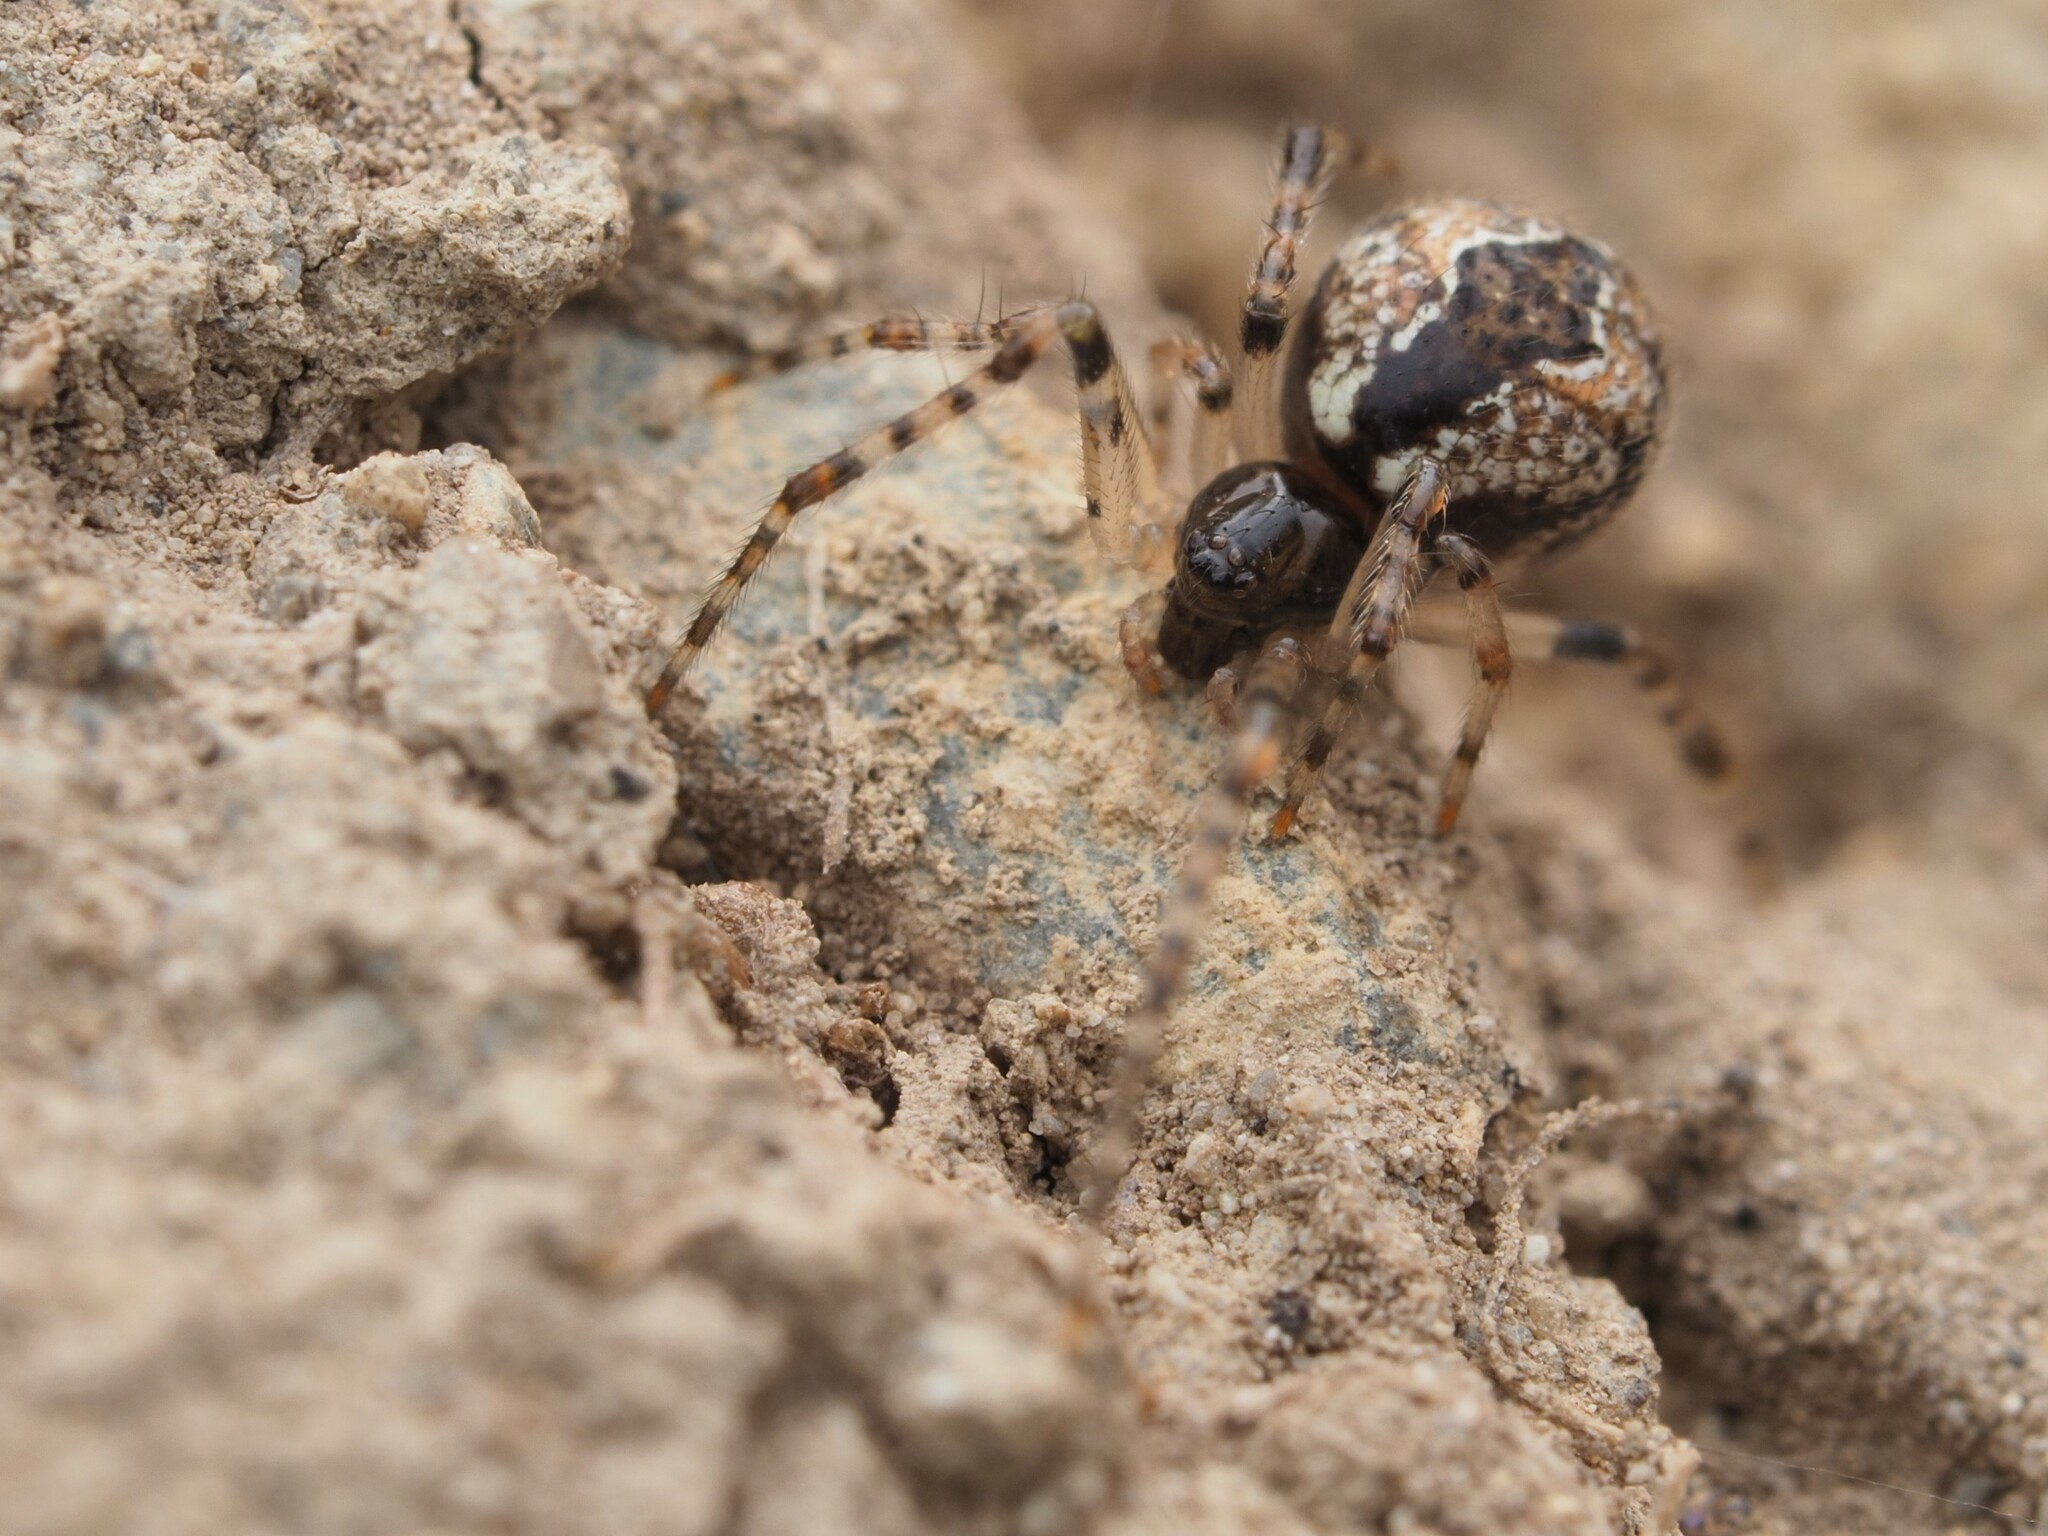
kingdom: Animalia
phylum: Arthropoda
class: Arachnida
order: Araneae
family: Theridiidae
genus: Cryptachaea
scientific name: Cryptachaea blattea
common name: Theridiid spider
